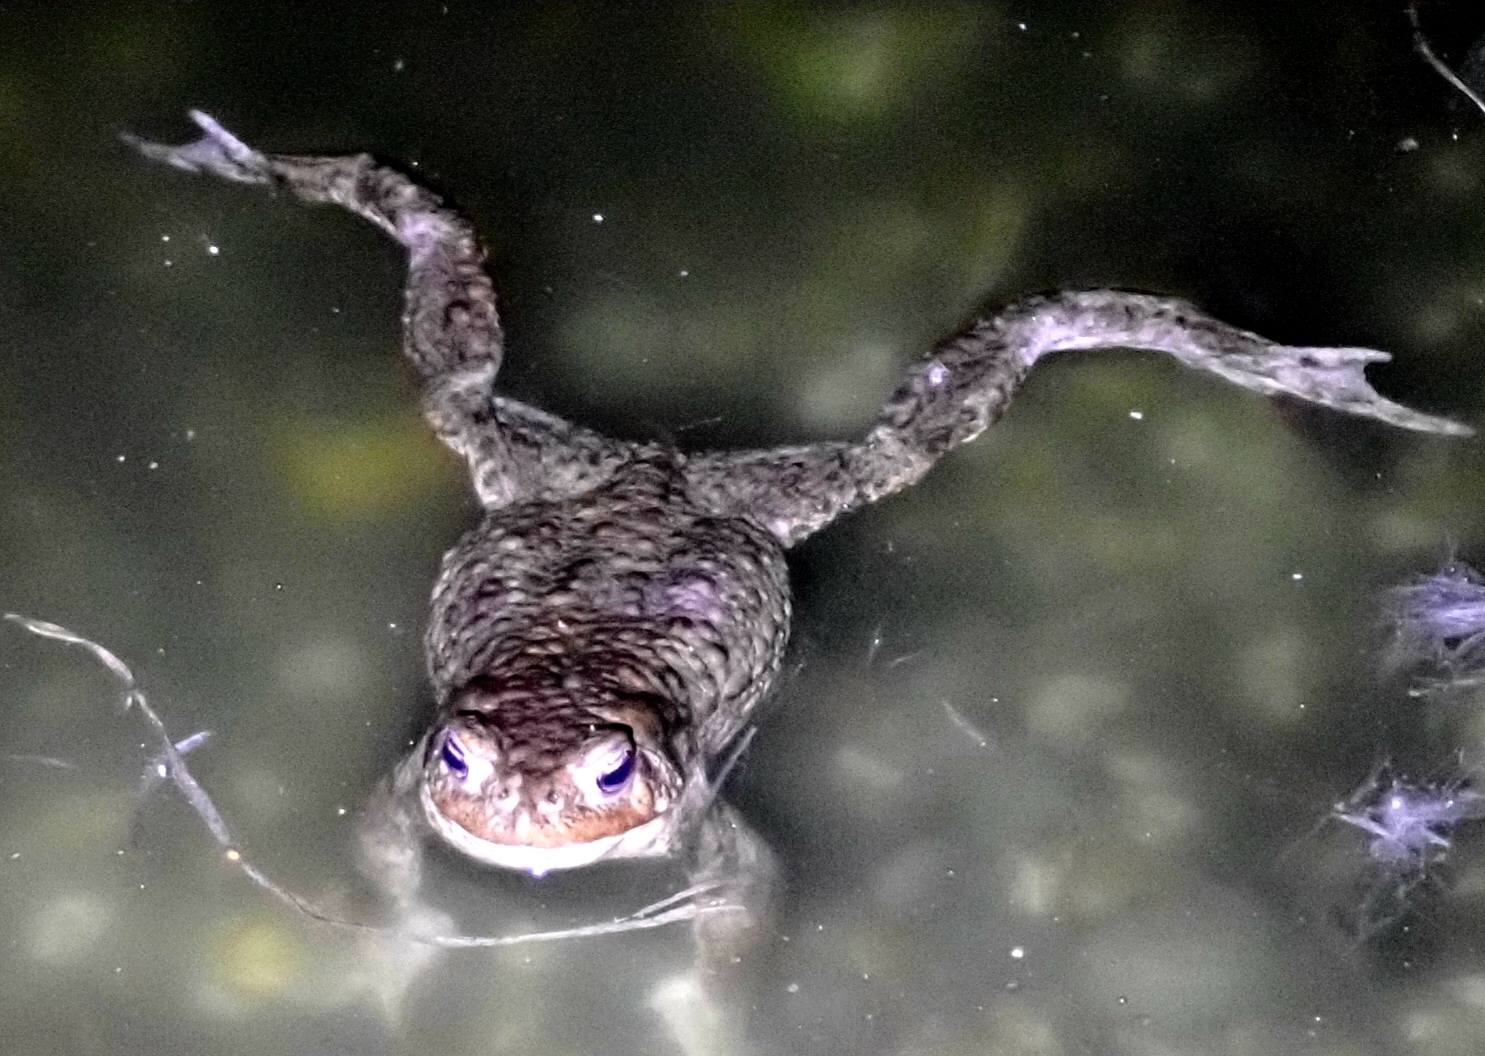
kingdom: Animalia
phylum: Chordata
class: Amphibia
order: Anura
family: Bufonidae
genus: Bufo
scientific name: Bufo bufo
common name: Common toad
